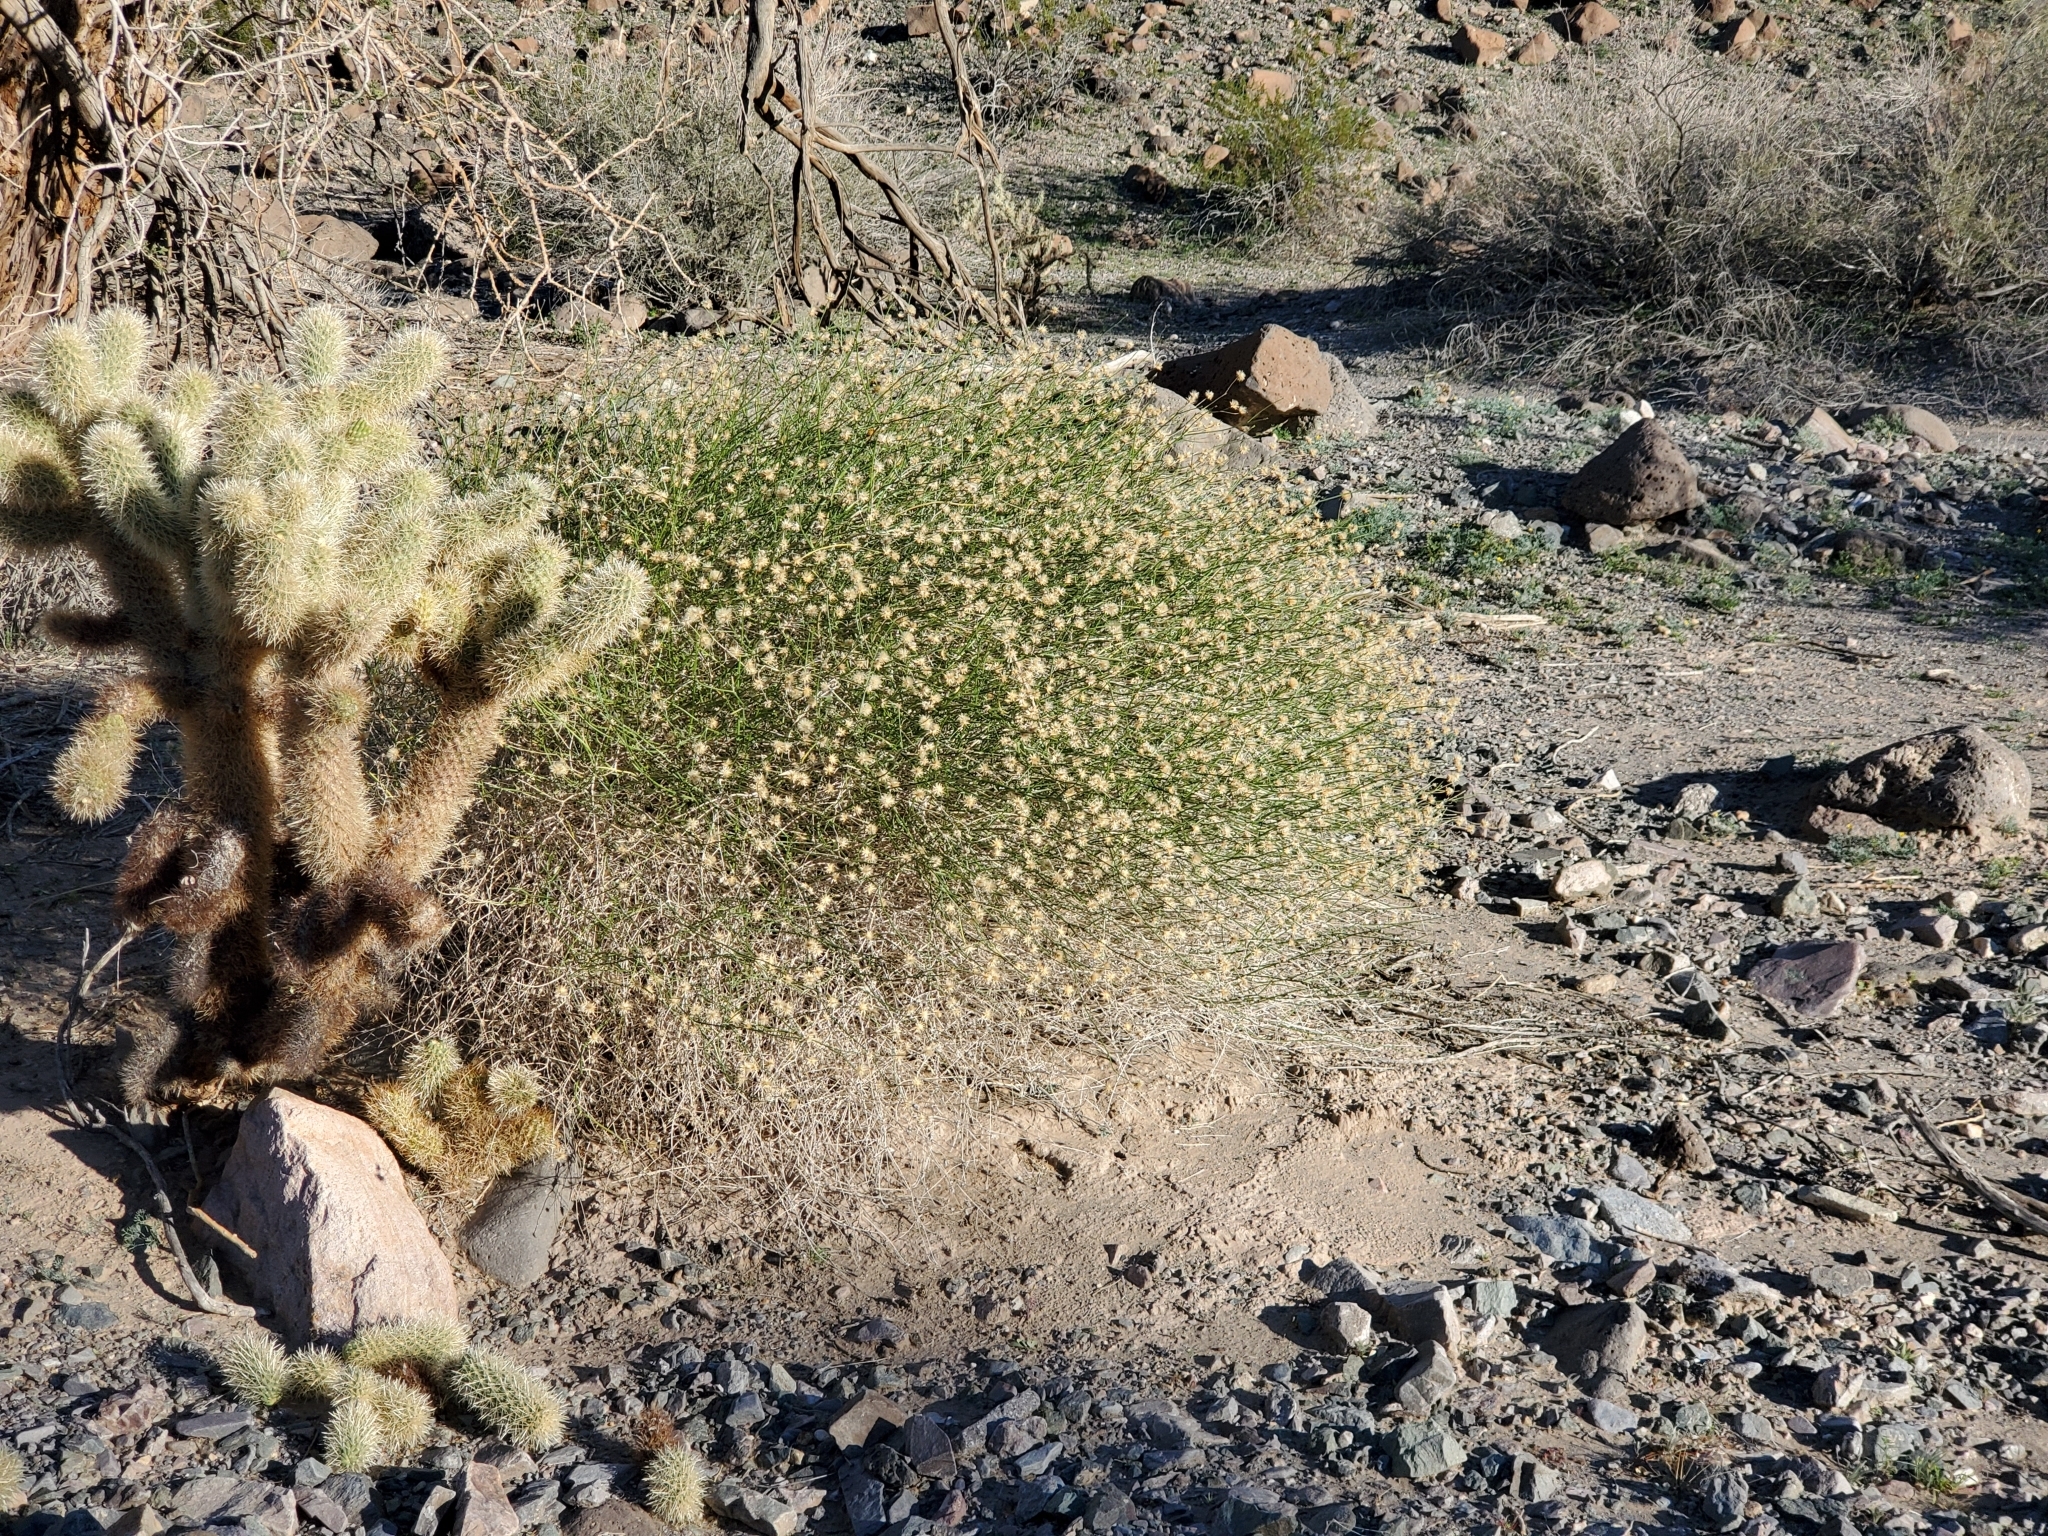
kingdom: Plantae
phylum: Tracheophyta
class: Magnoliopsida
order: Asterales
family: Asteraceae
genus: Bebbia
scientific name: Bebbia juncea
